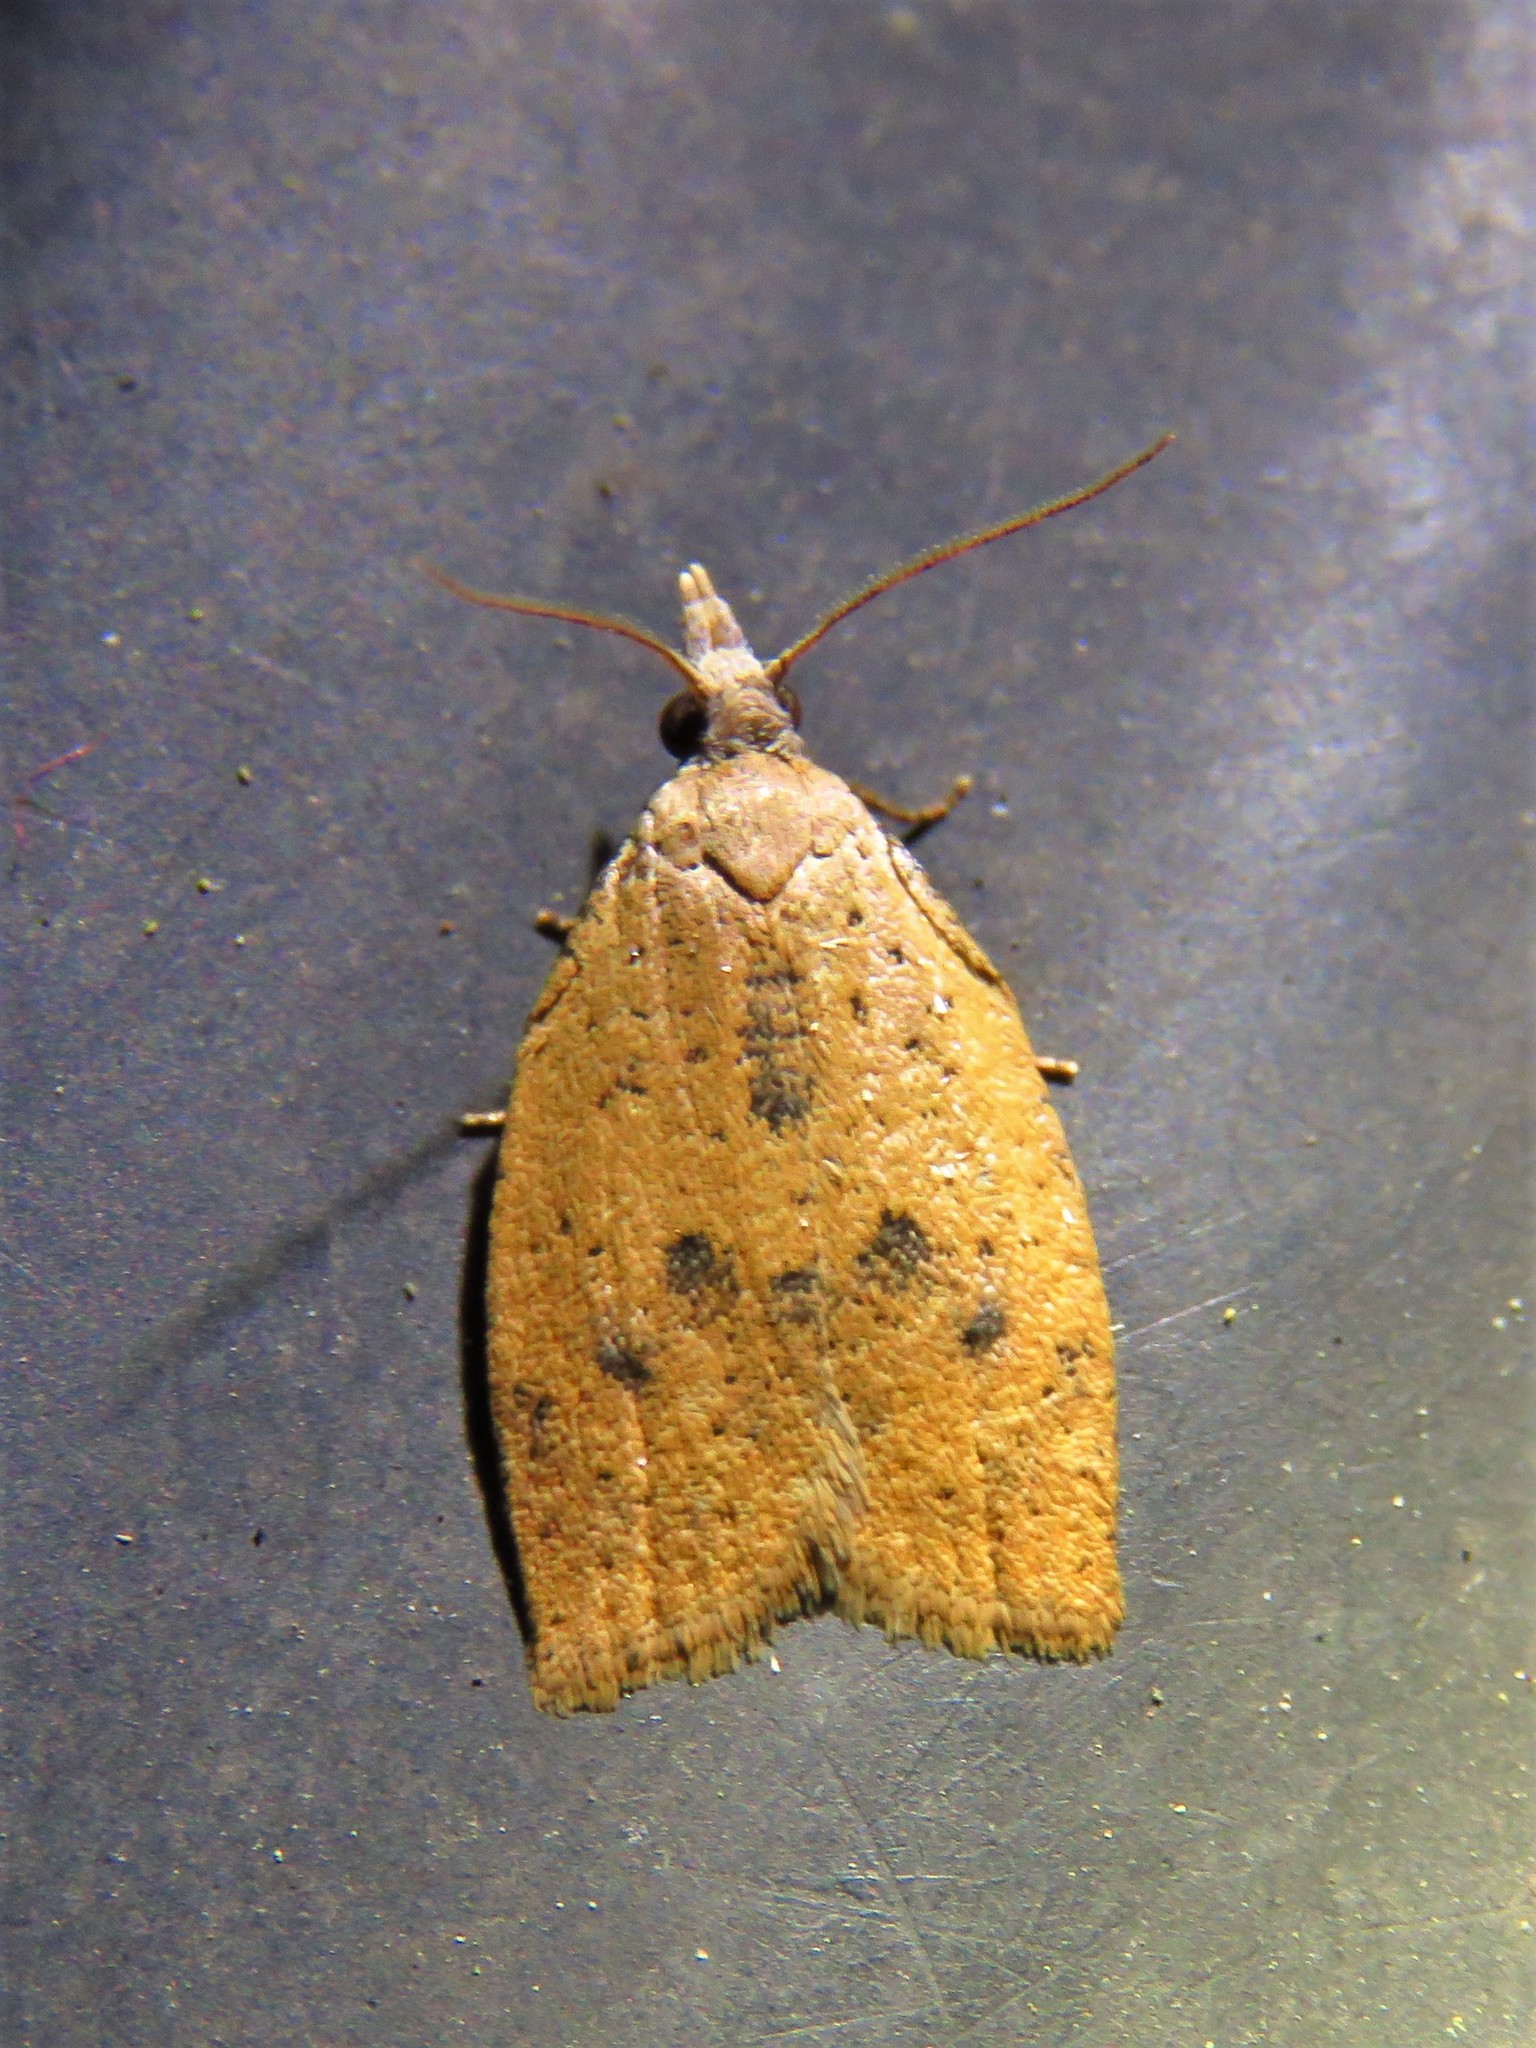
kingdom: Animalia
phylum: Arthropoda
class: Insecta
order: Lepidoptera
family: Tortricidae
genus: Sparganothoides
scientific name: Sparganothoides lentiginosana
